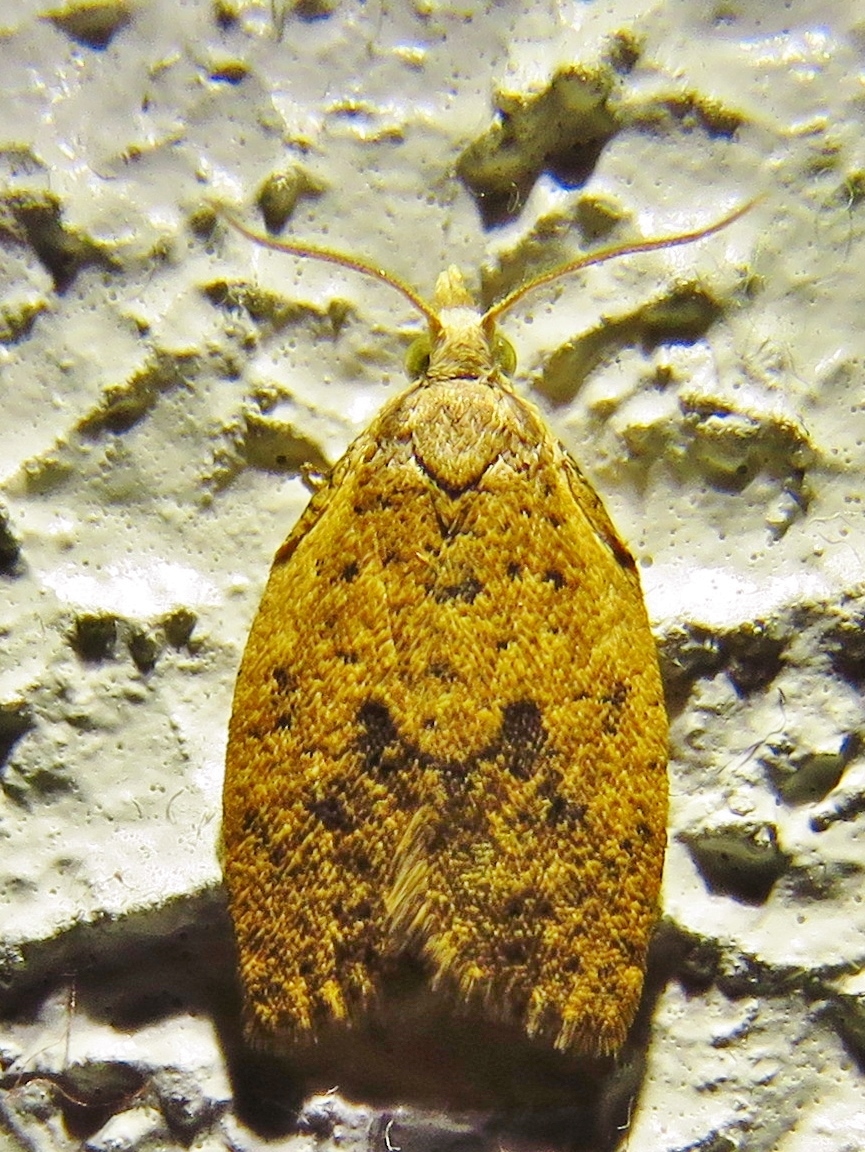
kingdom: Animalia
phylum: Arthropoda
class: Insecta
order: Lepidoptera
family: Tortricidae
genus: Sparganothoides
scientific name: Sparganothoides lentiginosana
